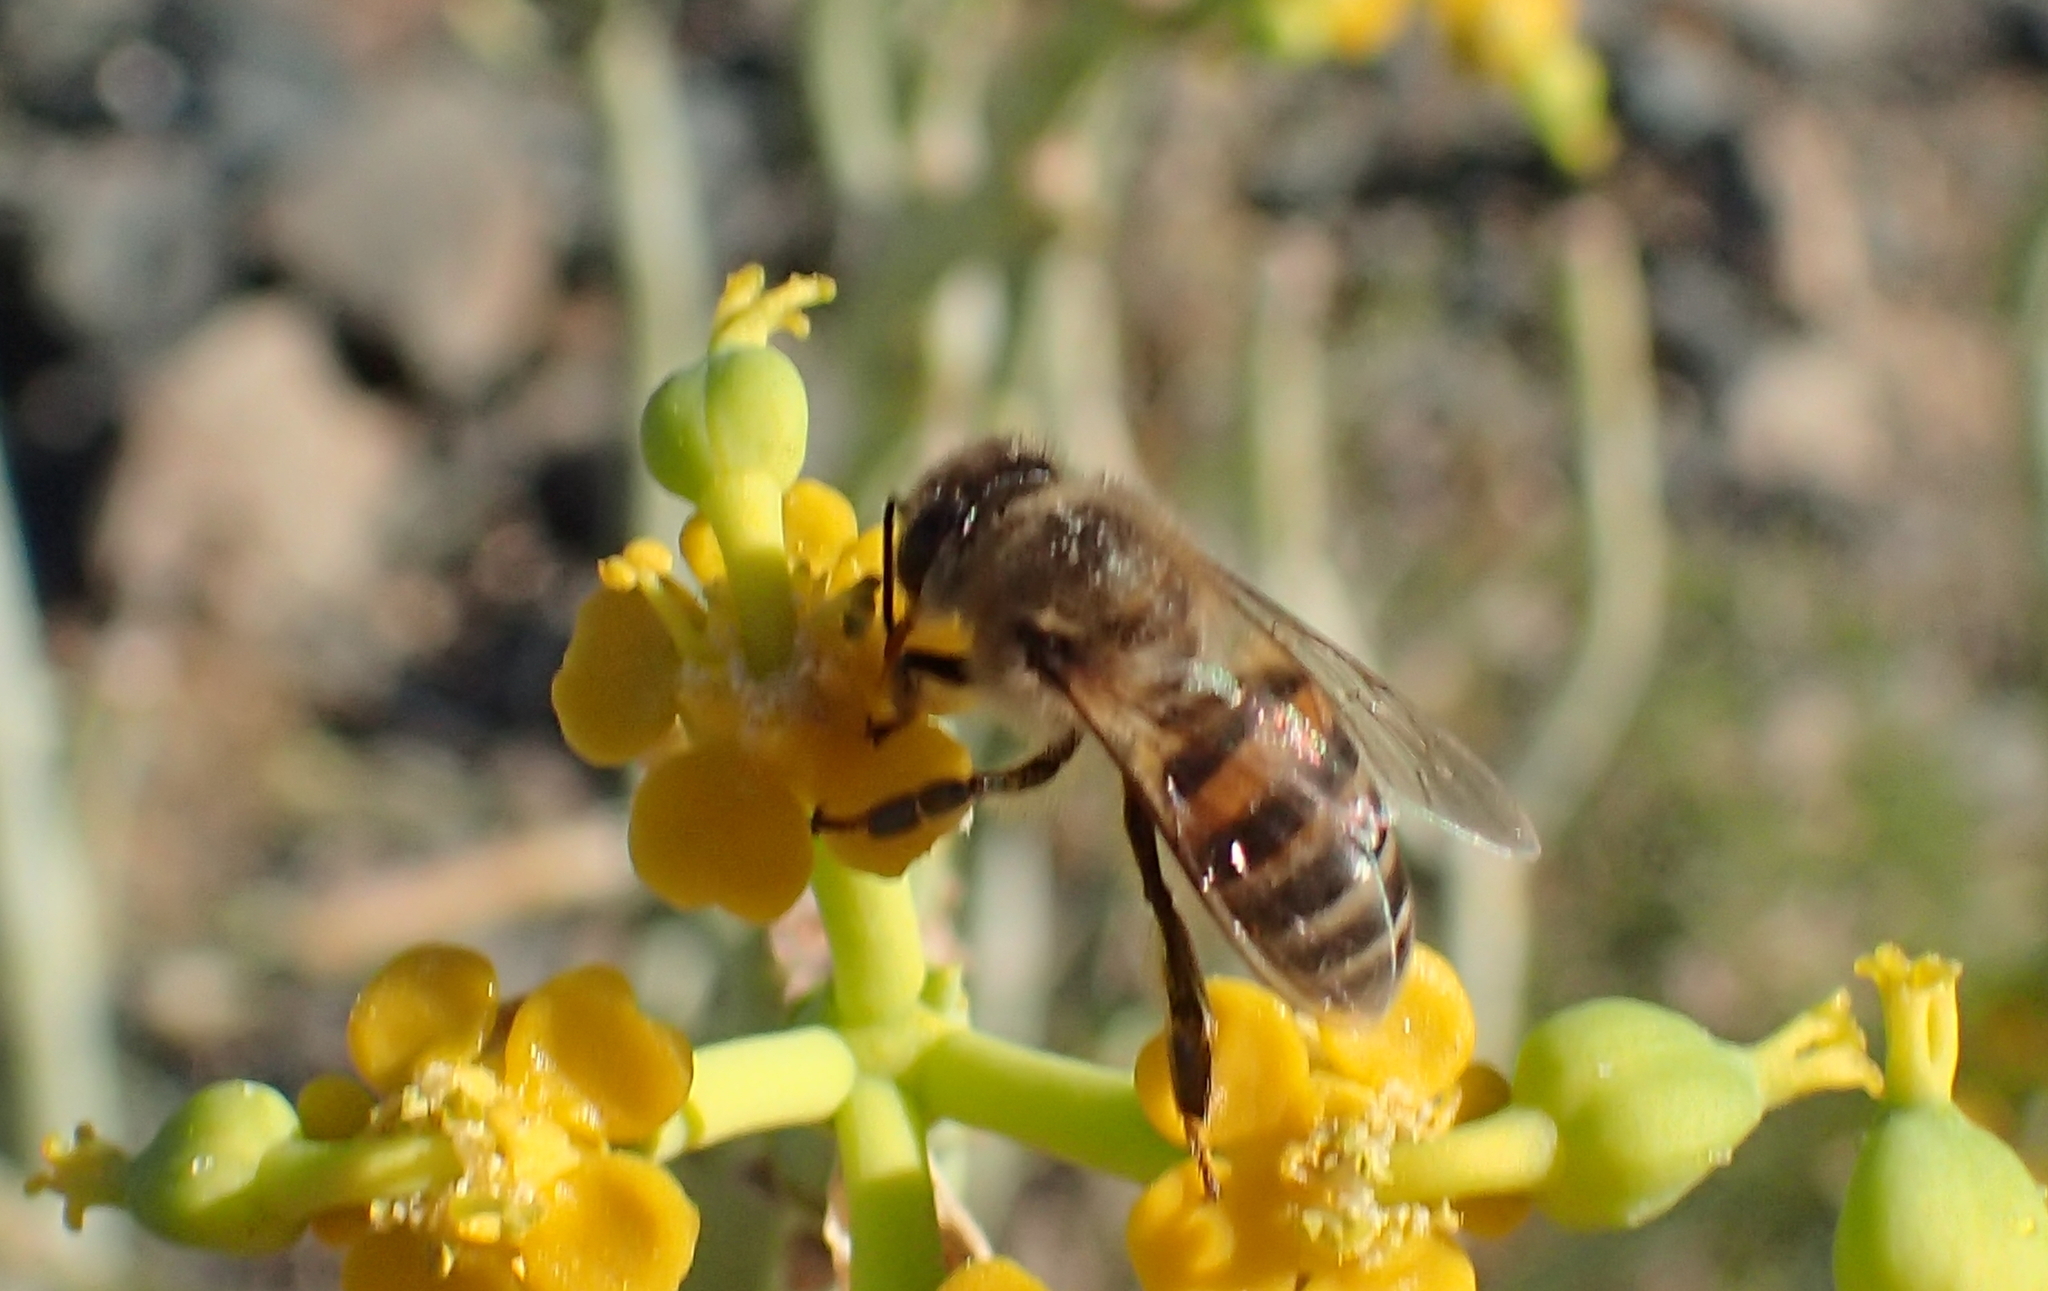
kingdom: Plantae
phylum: Tracheophyta
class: Magnoliopsida
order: Malpighiales
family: Euphorbiaceae
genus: Euphorbia
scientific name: Euphorbia mauritanica
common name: Jackal's-food
